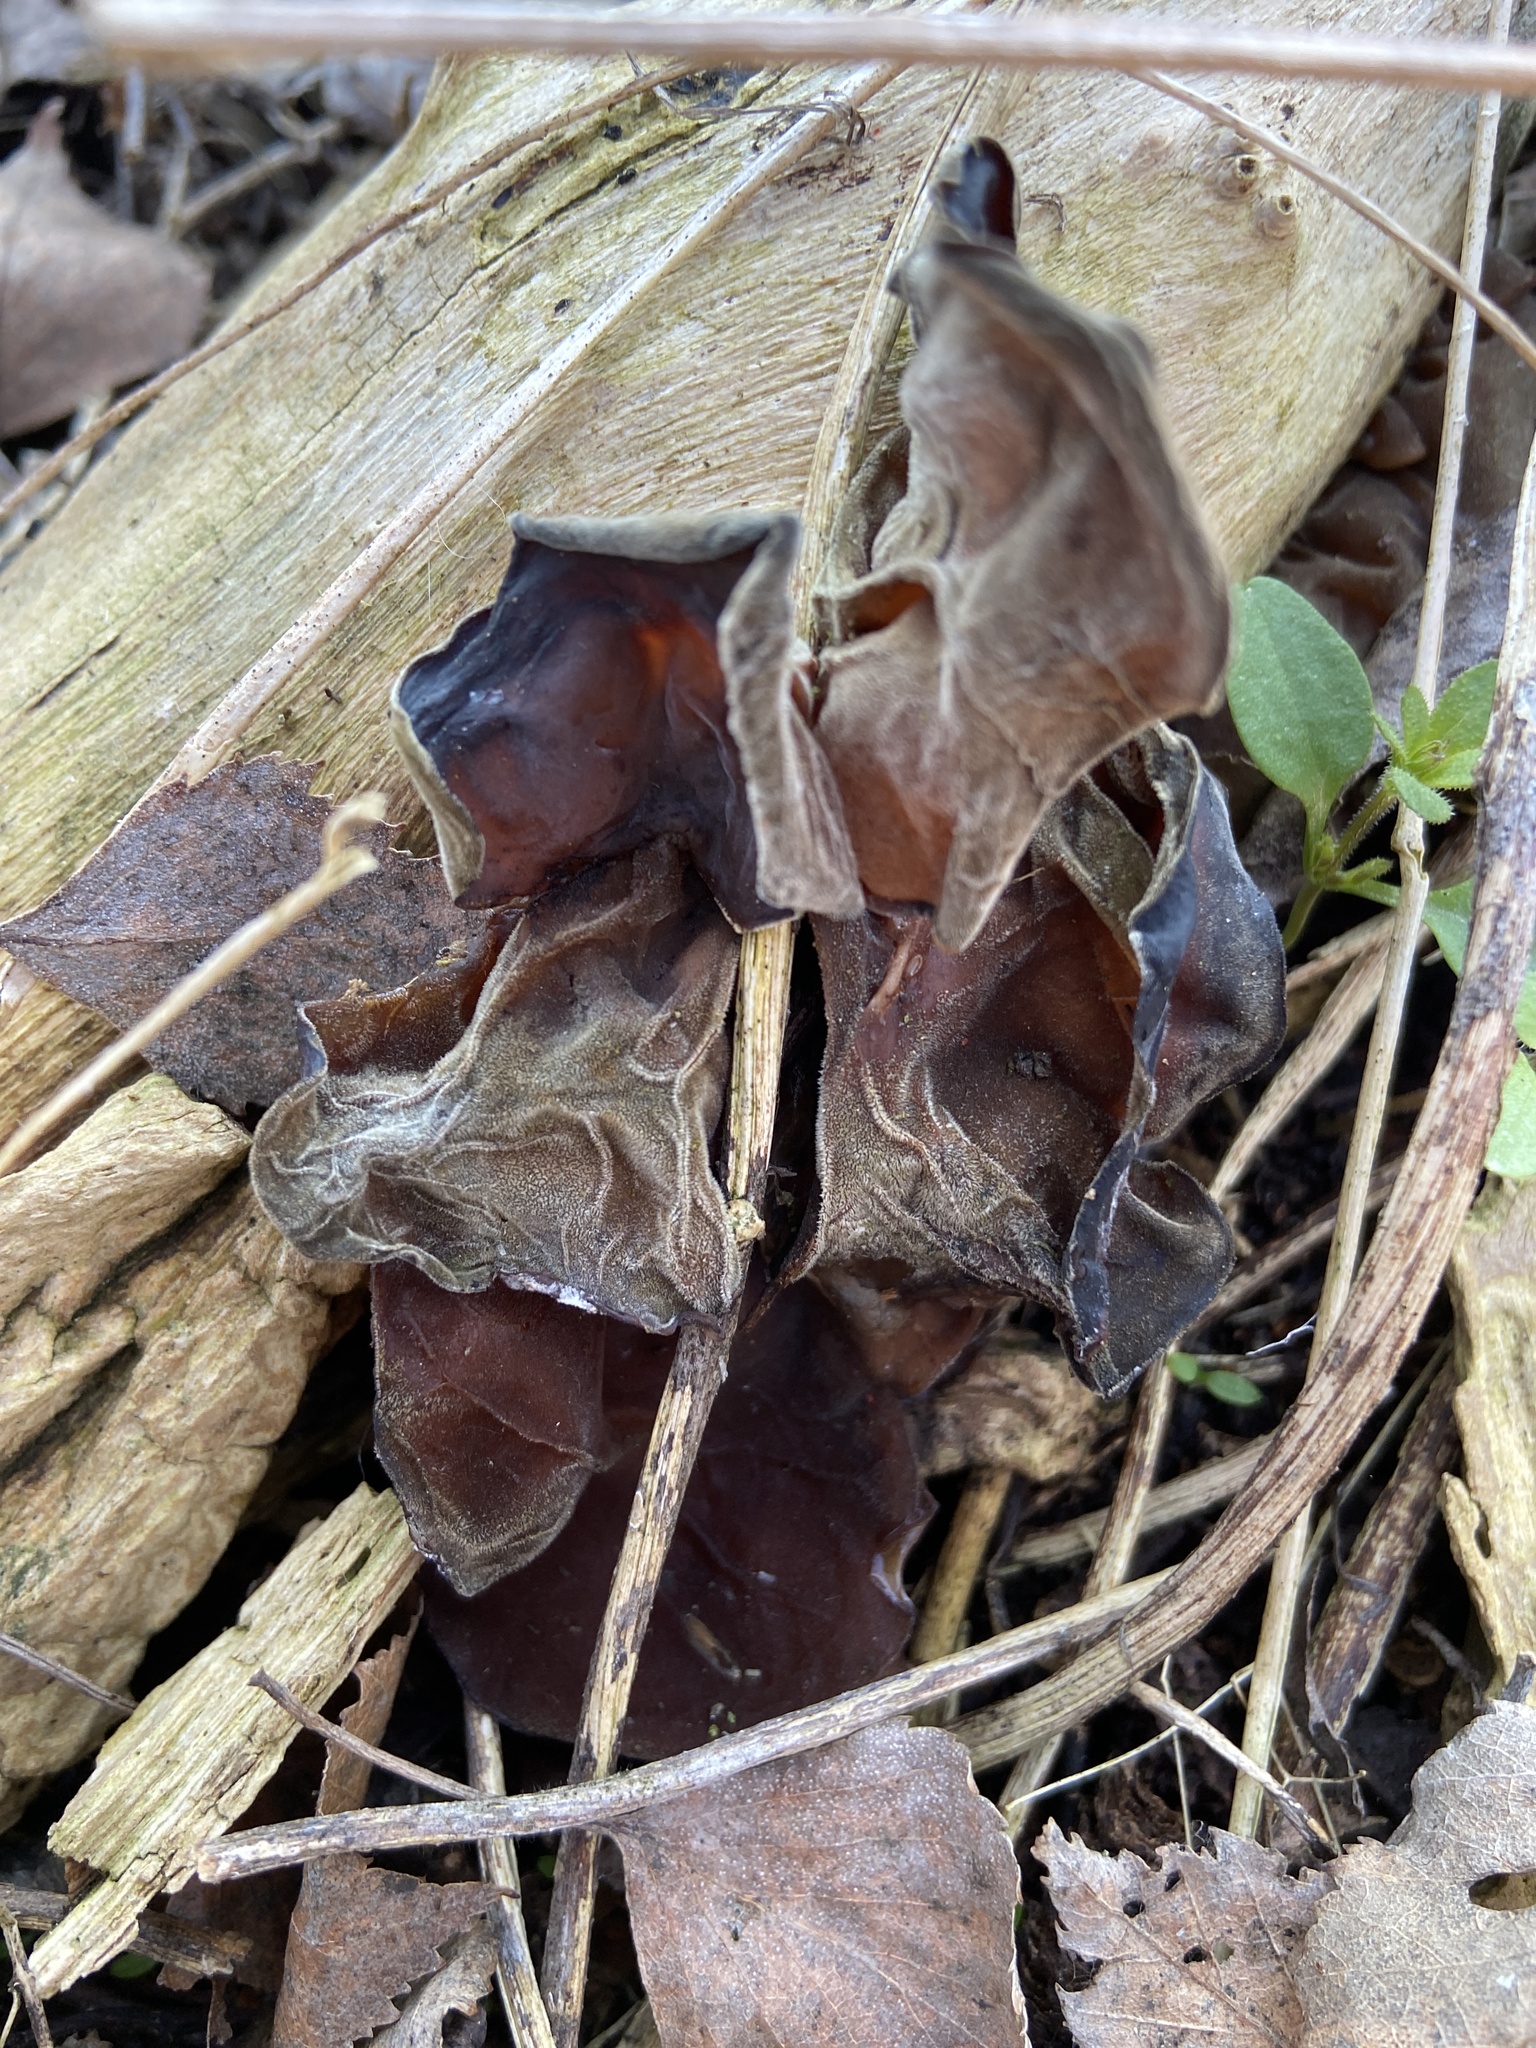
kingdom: Fungi
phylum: Basidiomycota
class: Agaricomycetes
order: Auriculariales
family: Auriculariaceae
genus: Auricularia
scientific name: Auricularia auricula-judae
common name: Jelly ear
